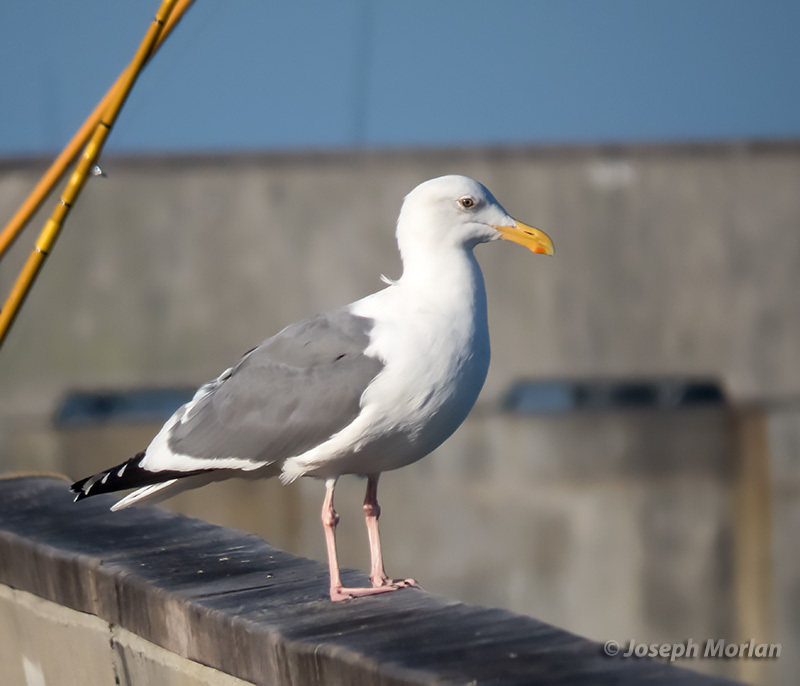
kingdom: Animalia
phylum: Chordata
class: Aves
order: Charadriiformes
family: Laridae
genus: Larus
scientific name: Larus occidentalis
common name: Western gull
